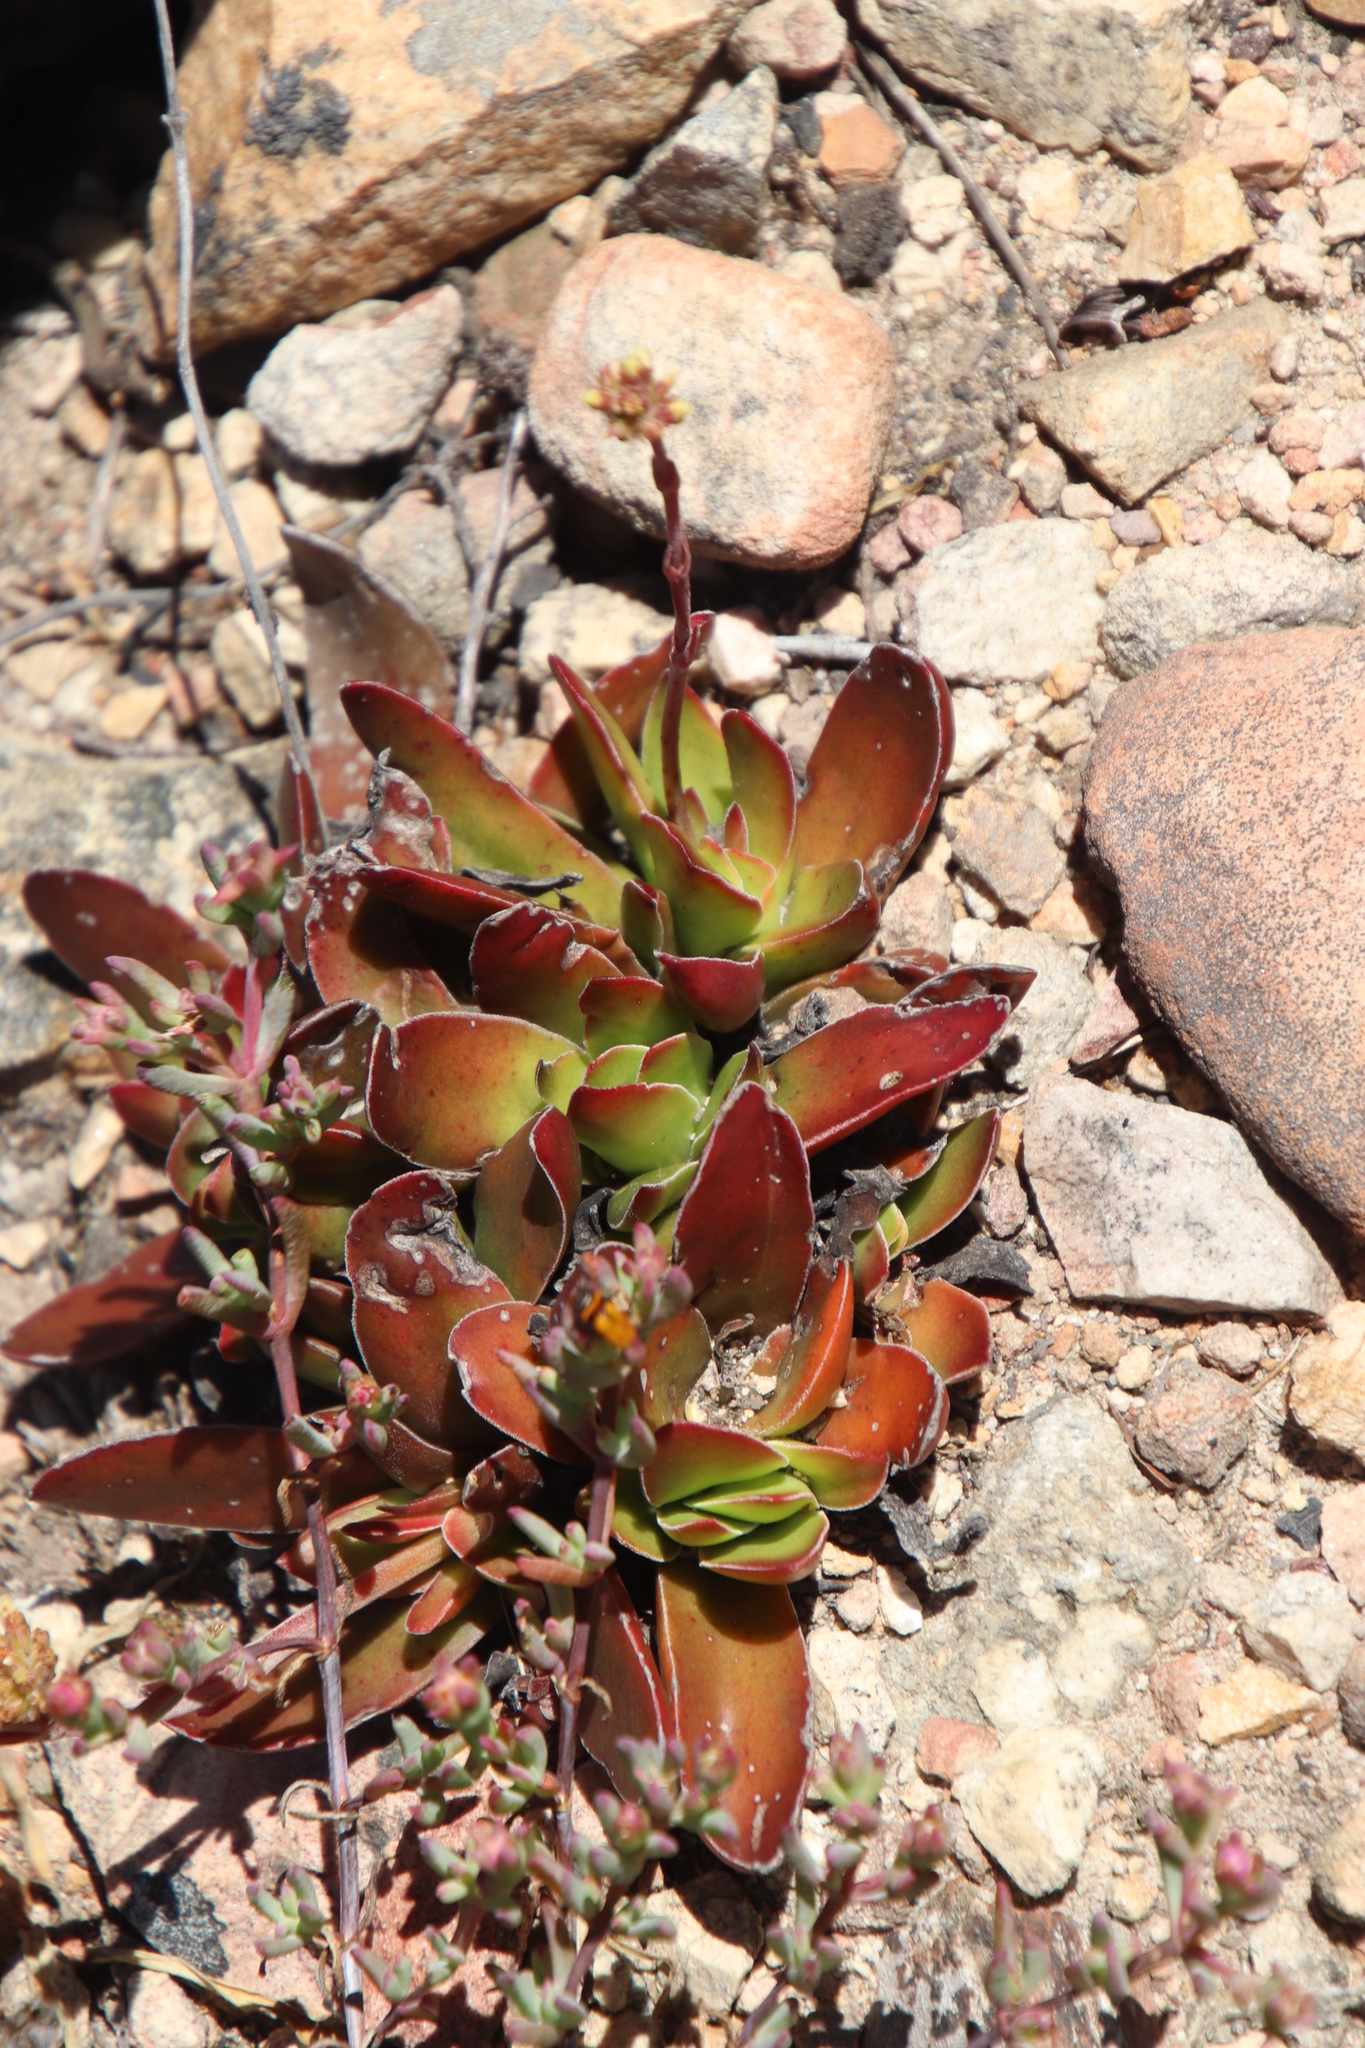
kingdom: Plantae
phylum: Tracheophyta
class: Magnoliopsida
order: Saxifragales
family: Crassulaceae
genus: Crassula
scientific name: Crassula nudicaulis
